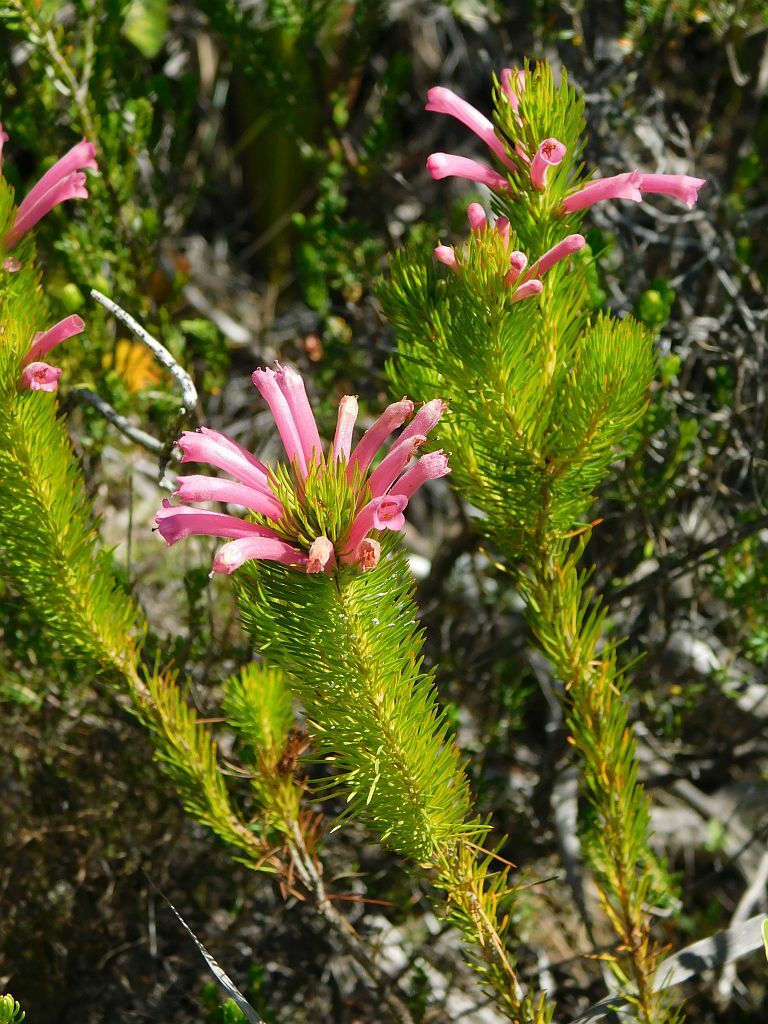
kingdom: Plantae
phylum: Tracheophyta
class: Magnoliopsida
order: Ericales
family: Ericaceae
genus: Erica
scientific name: Erica vestita
